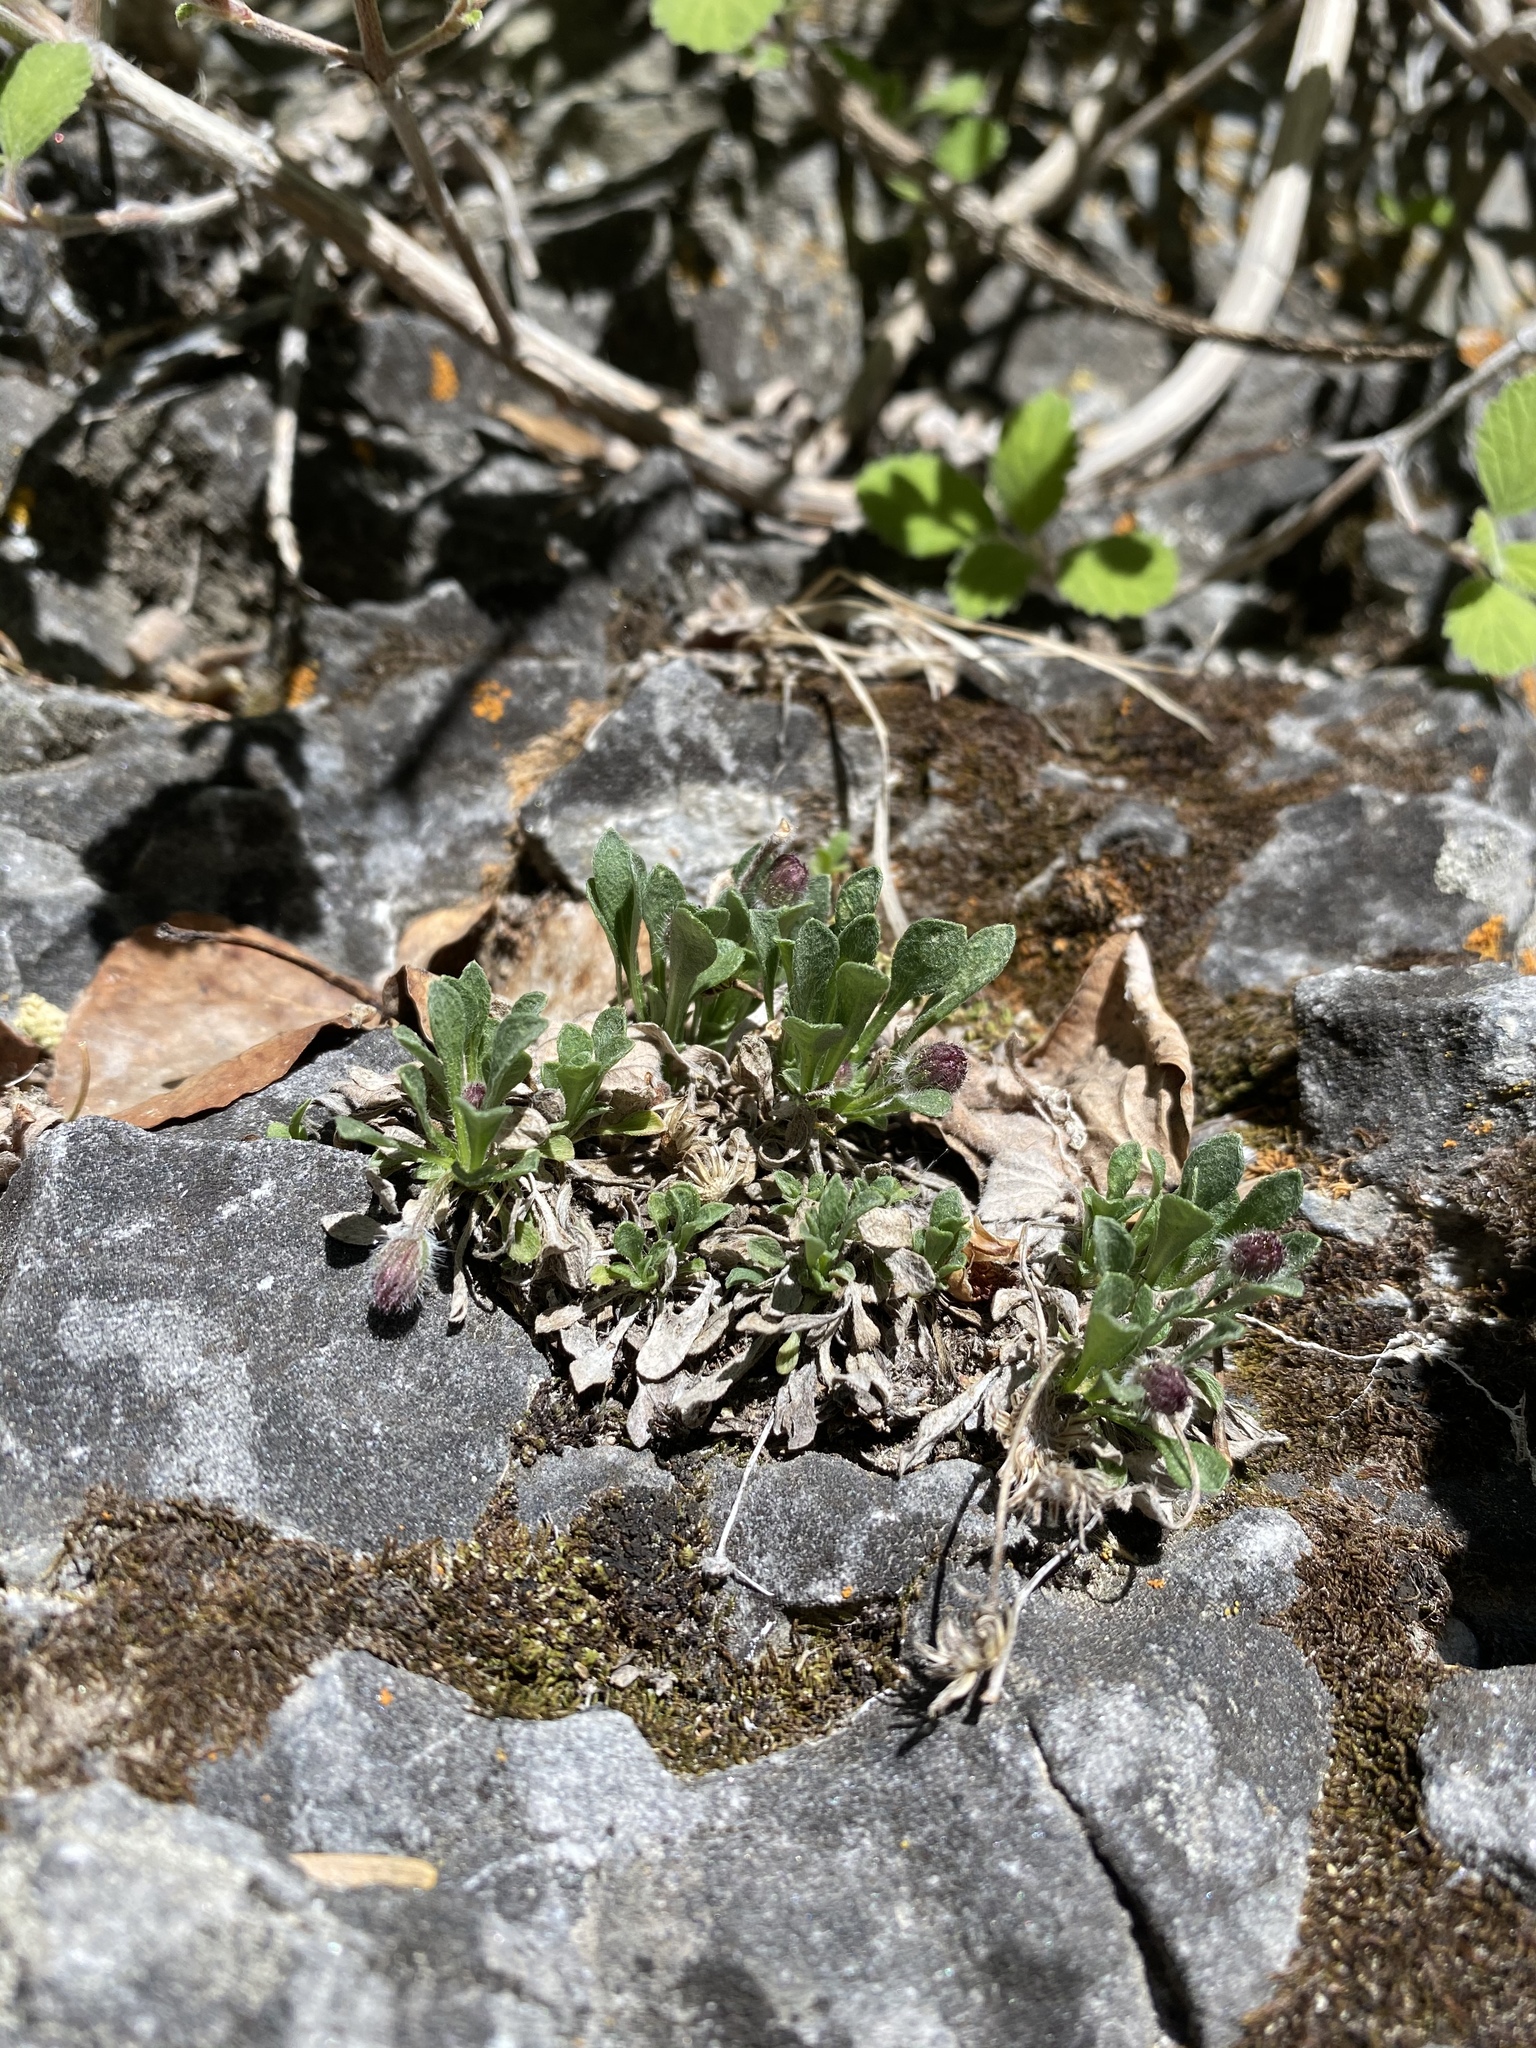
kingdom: Plantae
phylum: Tracheophyta
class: Magnoliopsida
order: Asterales
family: Asteraceae
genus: Erigeron
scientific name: Erigeron uncialis
